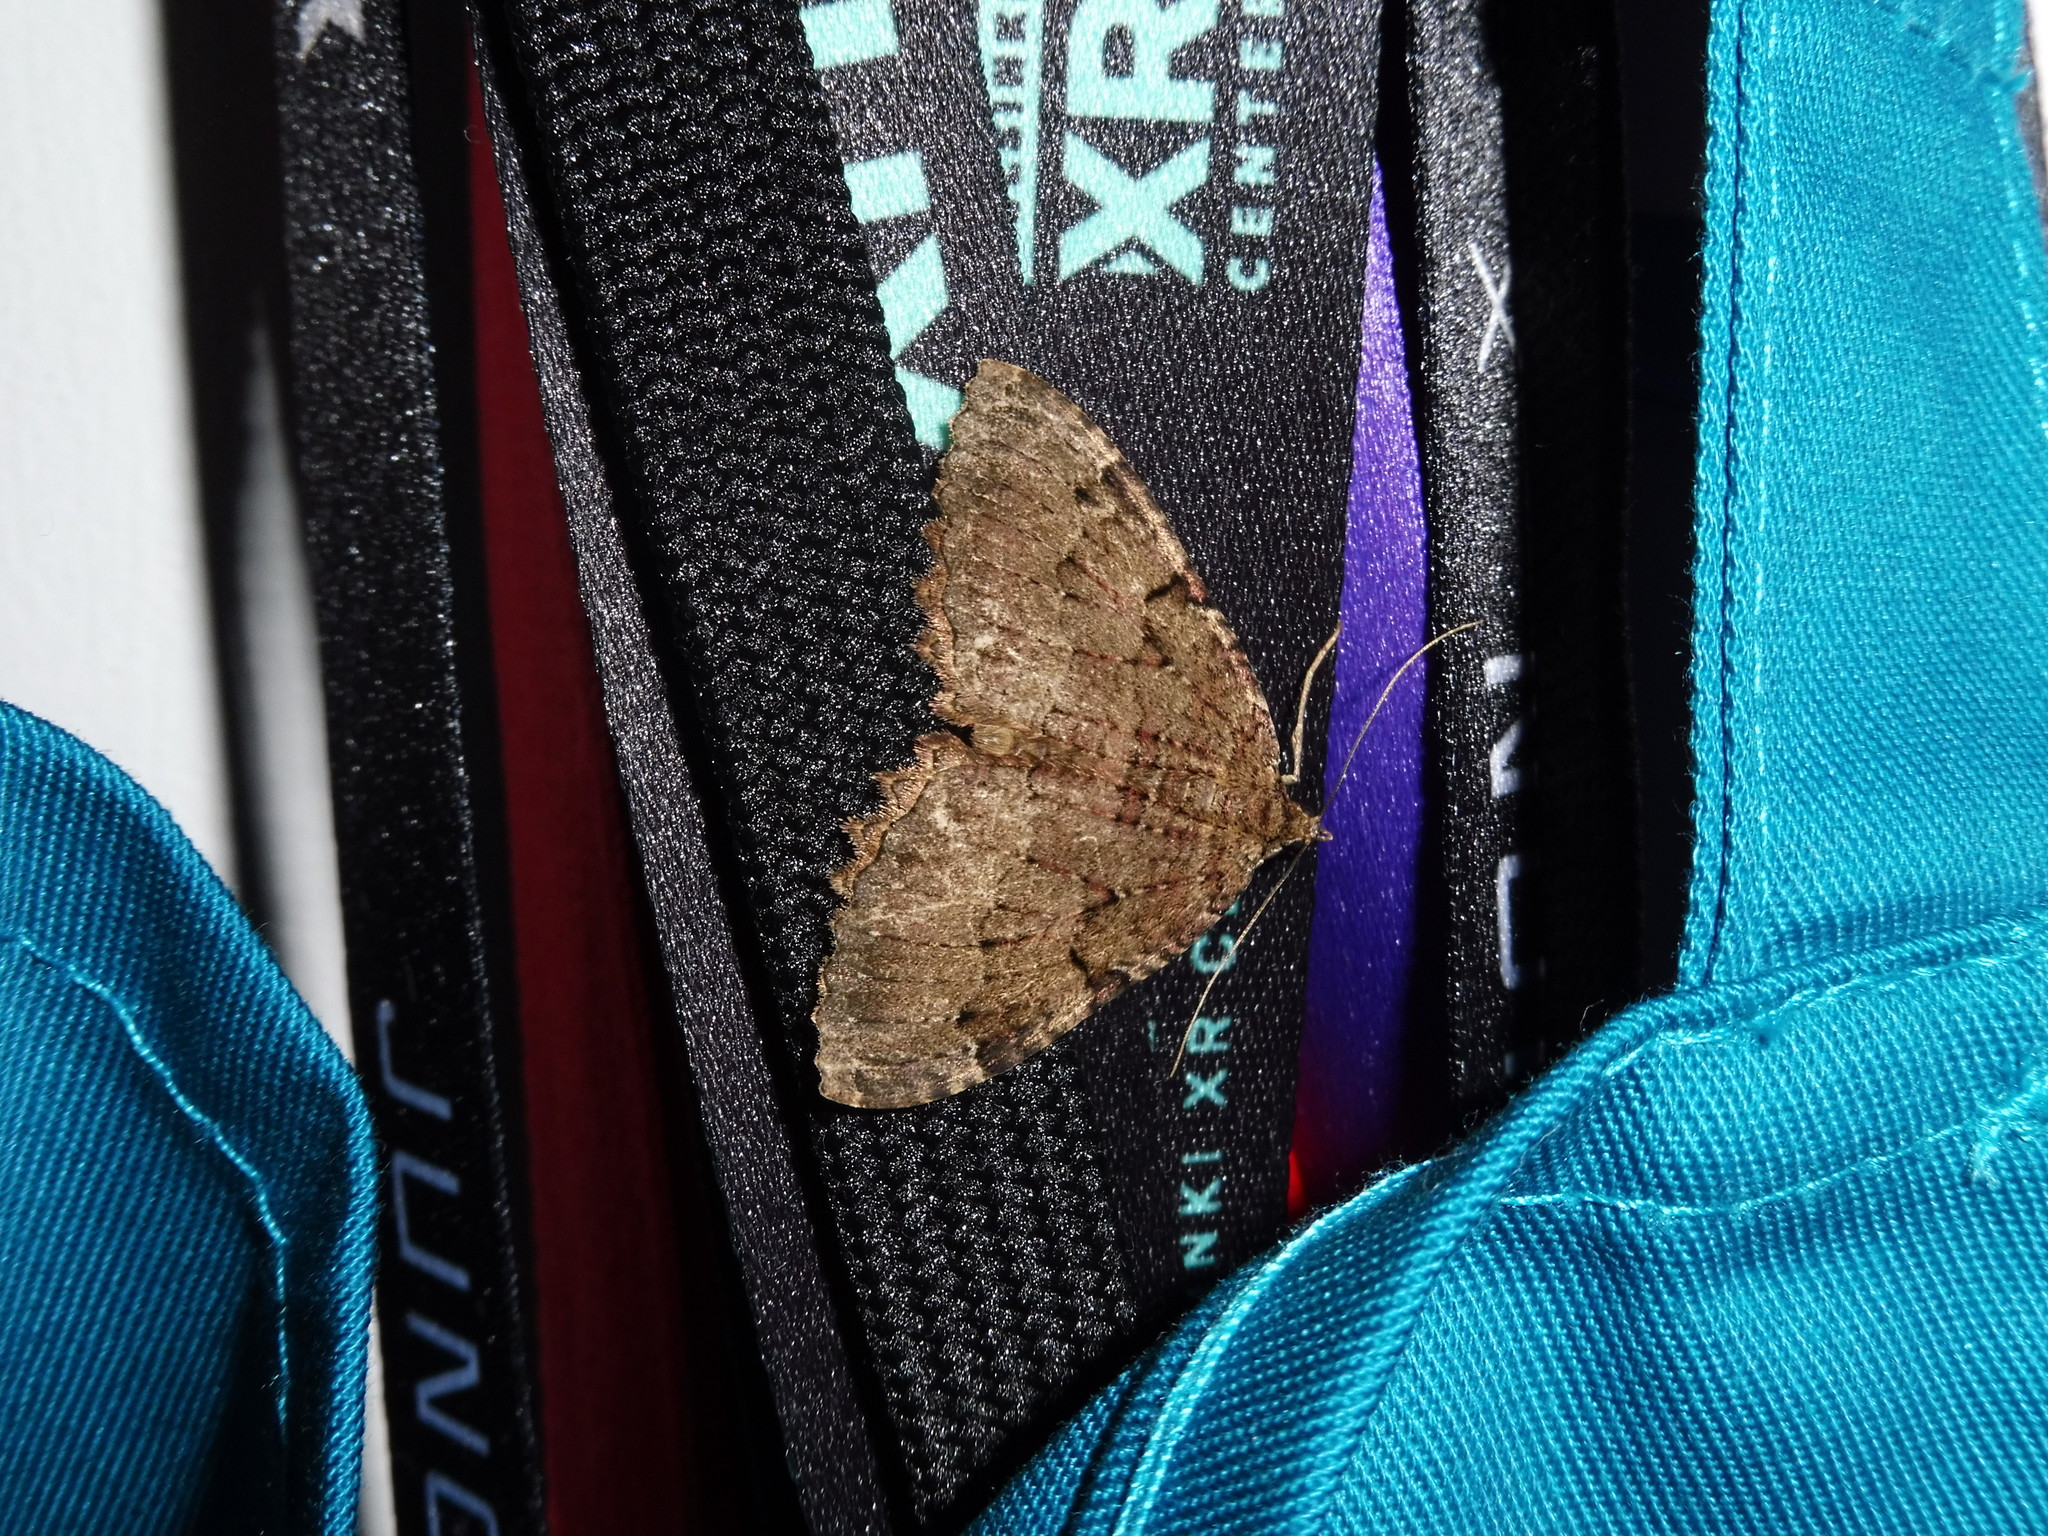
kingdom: Animalia
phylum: Arthropoda
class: Insecta
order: Lepidoptera
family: Geometridae
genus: Triphosa
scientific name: Triphosa dubitata
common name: Tissue
